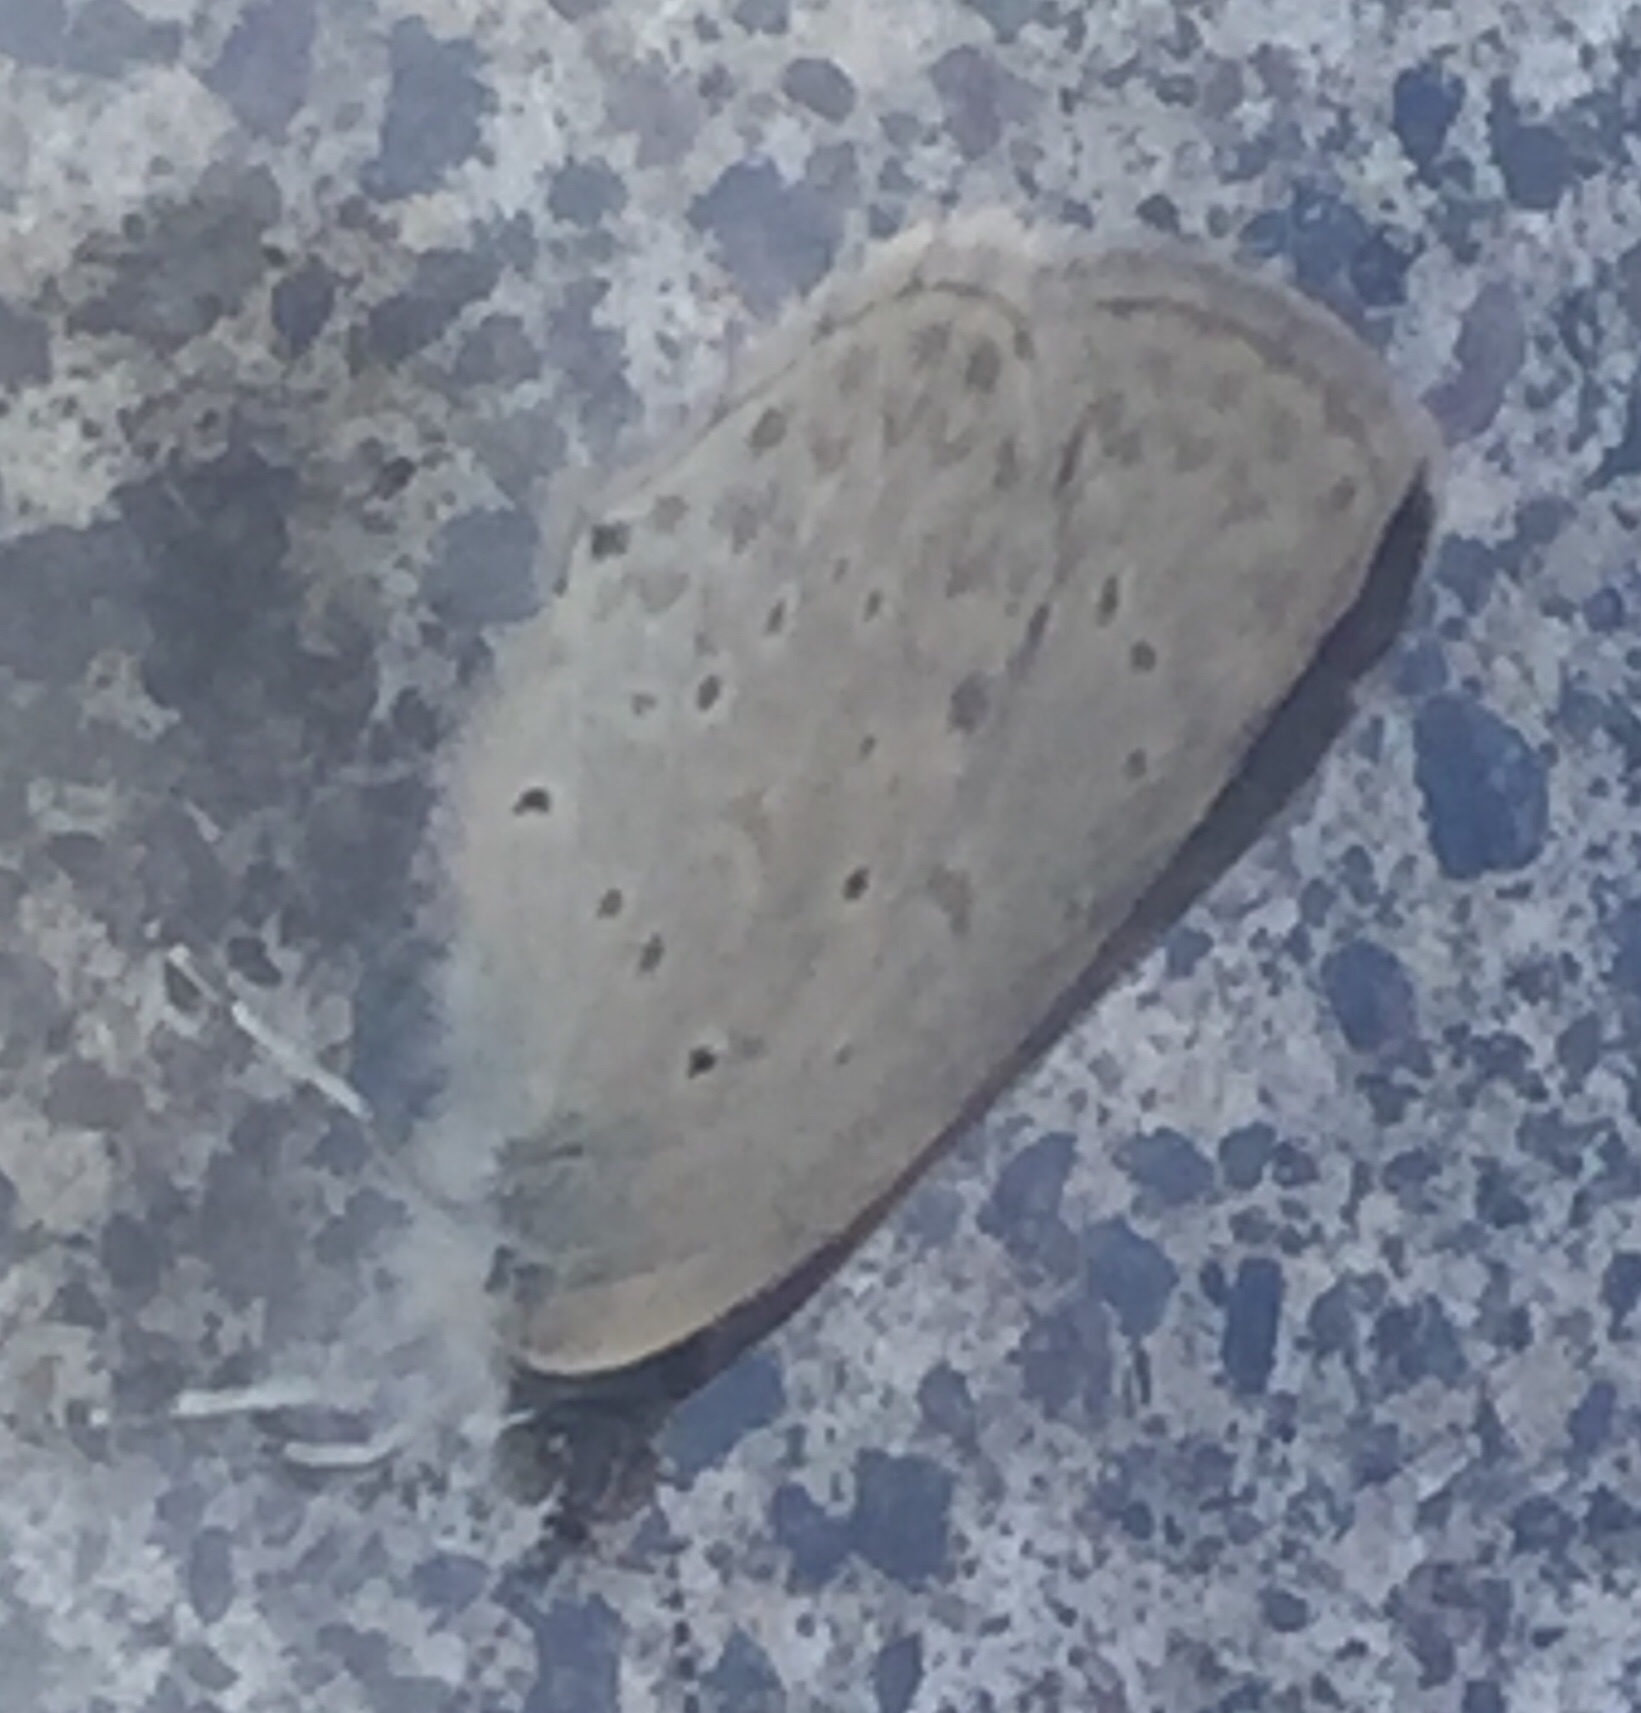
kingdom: Animalia
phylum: Arthropoda
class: Insecta
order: Lepidoptera
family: Lycaenidae
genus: Zizeeria
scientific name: Zizeeria knysna
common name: African grass blue
